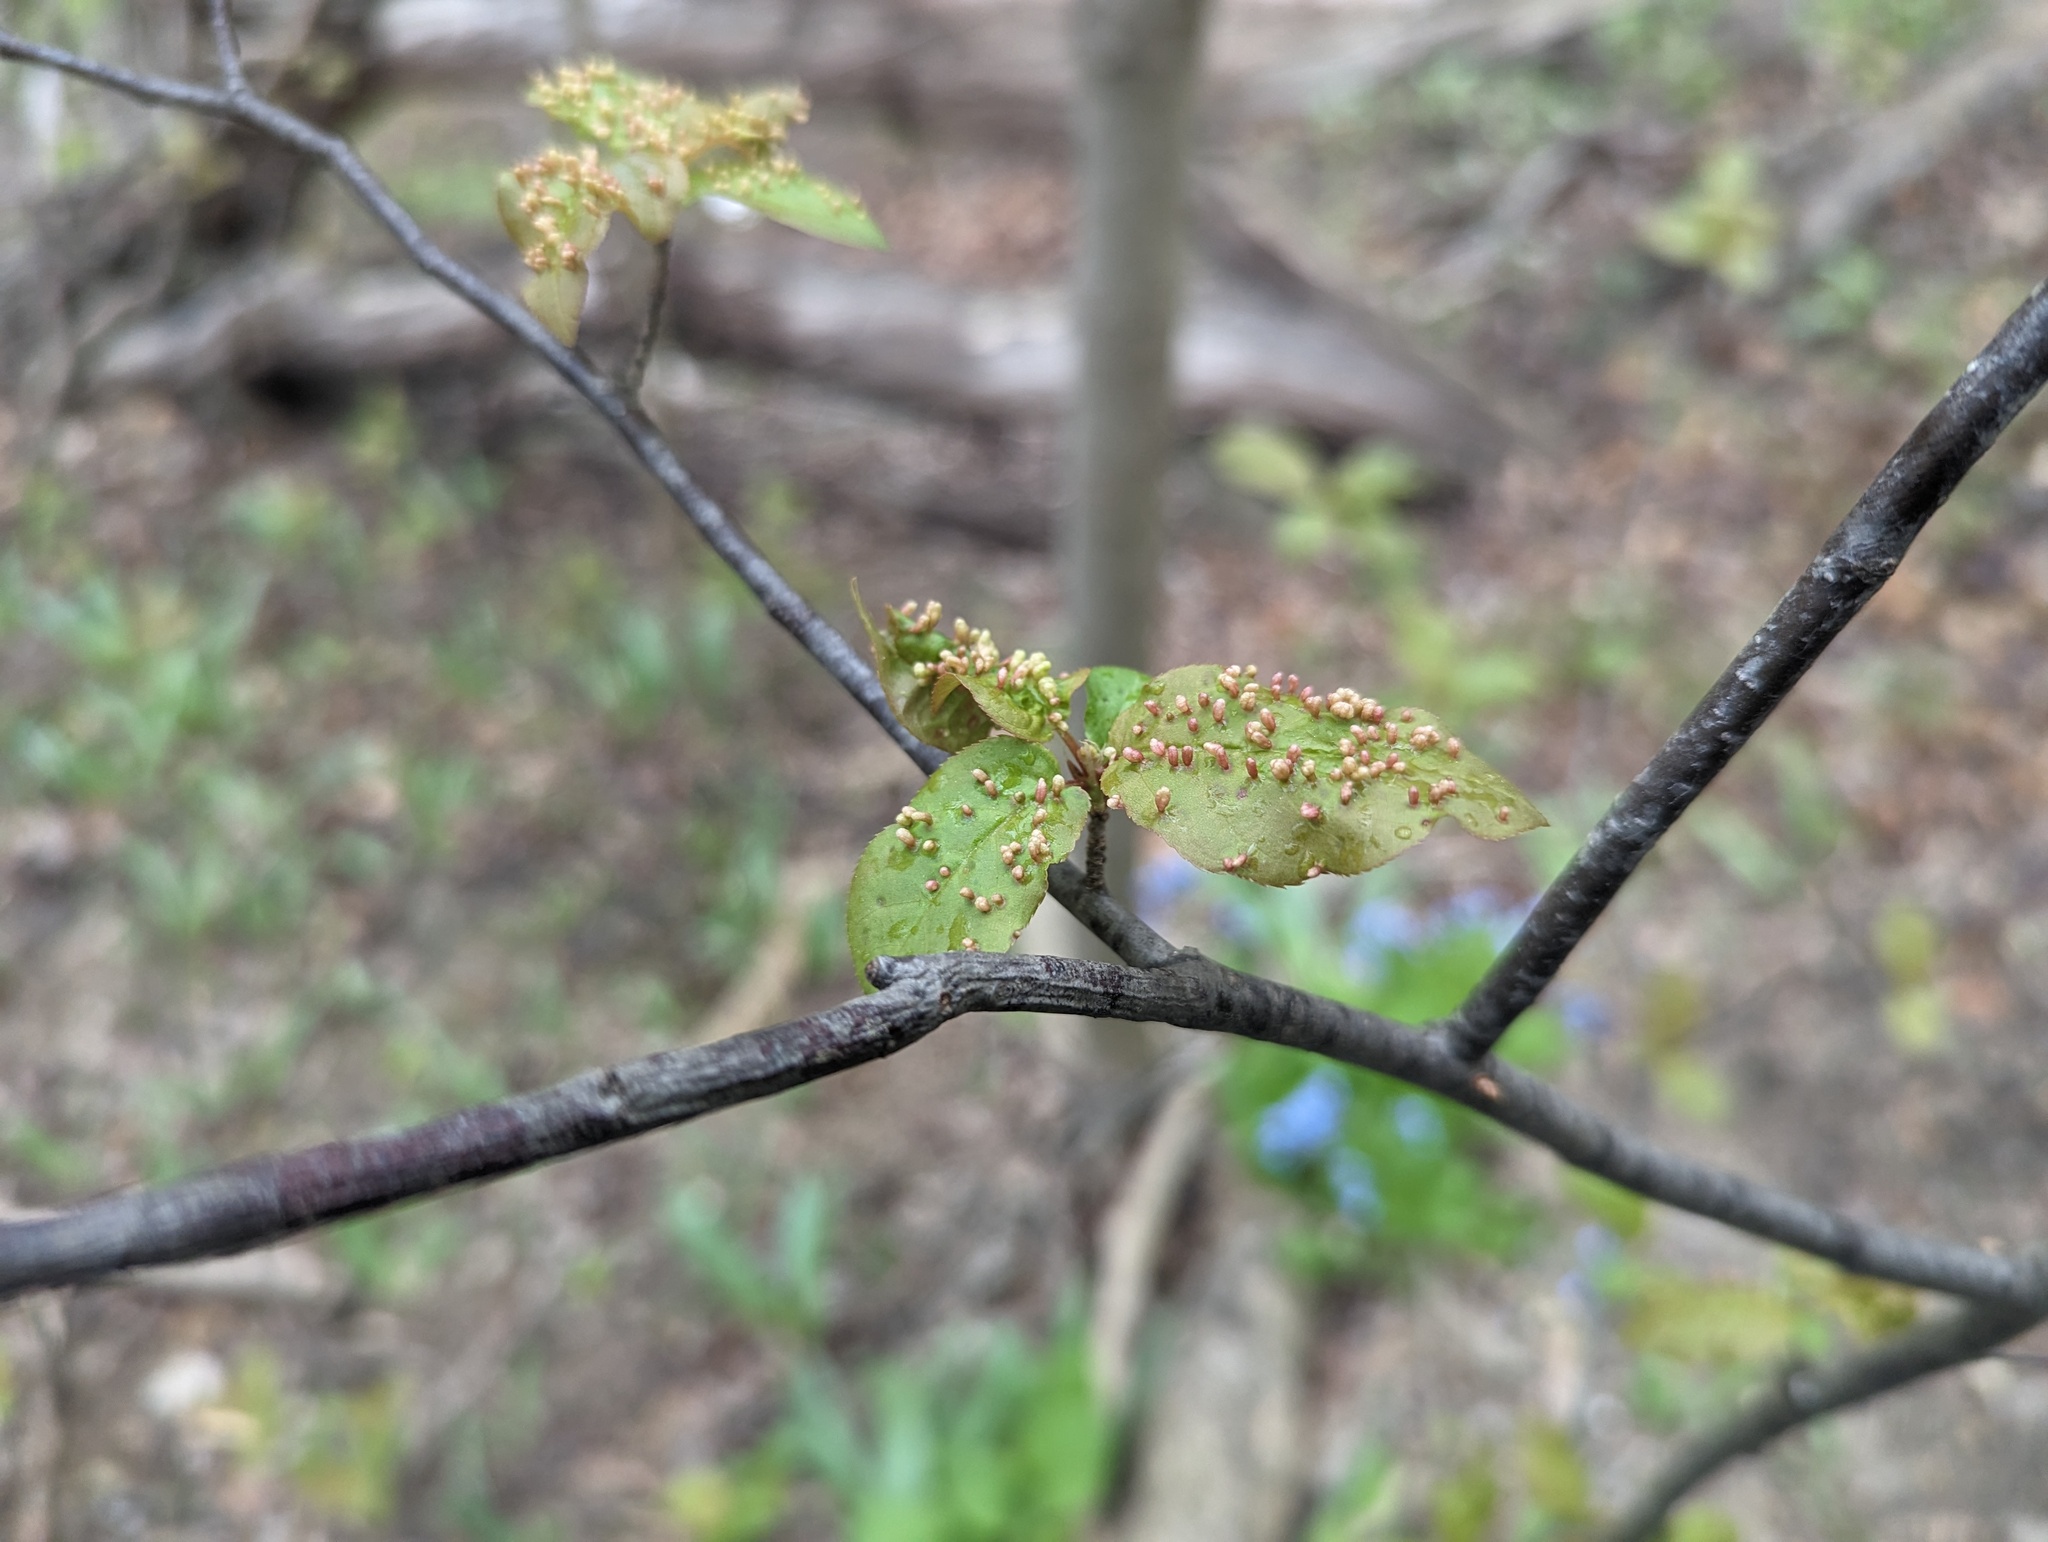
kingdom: Animalia
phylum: Arthropoda
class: Arachnida
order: Trombidiformes
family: Eriophyidae
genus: Eriophyes
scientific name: Eriophyes emarginatae
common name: Plum leaf gall mite
